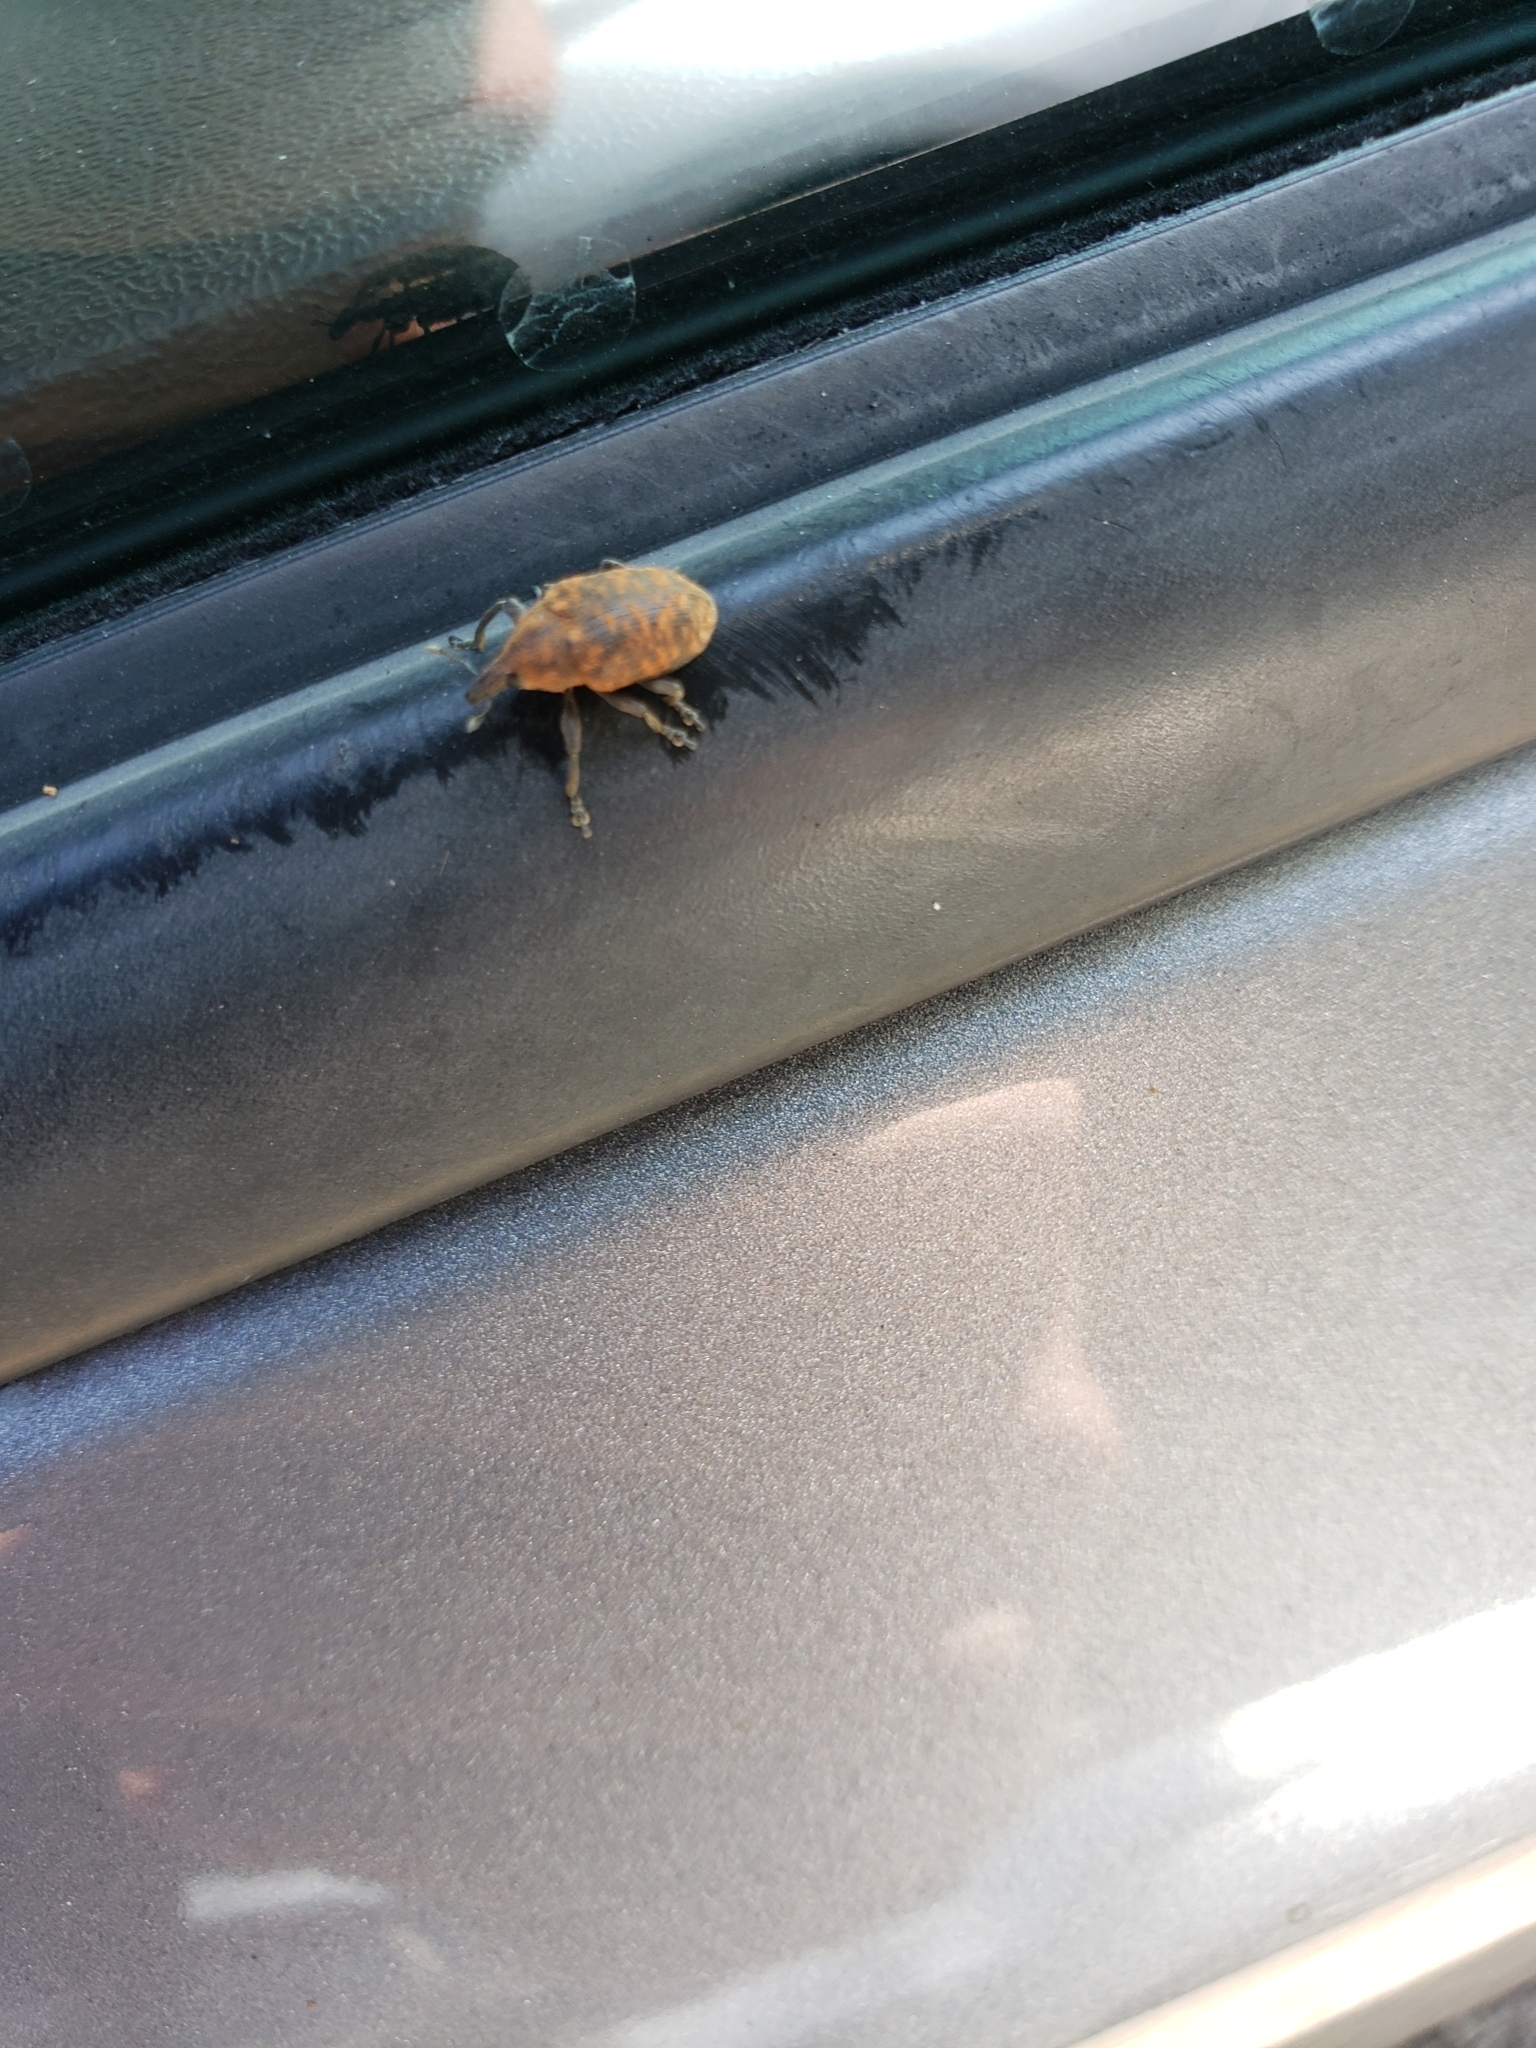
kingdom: Animalia
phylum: Arthropoda
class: Insecta
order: Coleoptera
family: Curculionidae
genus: Larinus
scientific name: Larinus turbinatus
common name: Weevil
